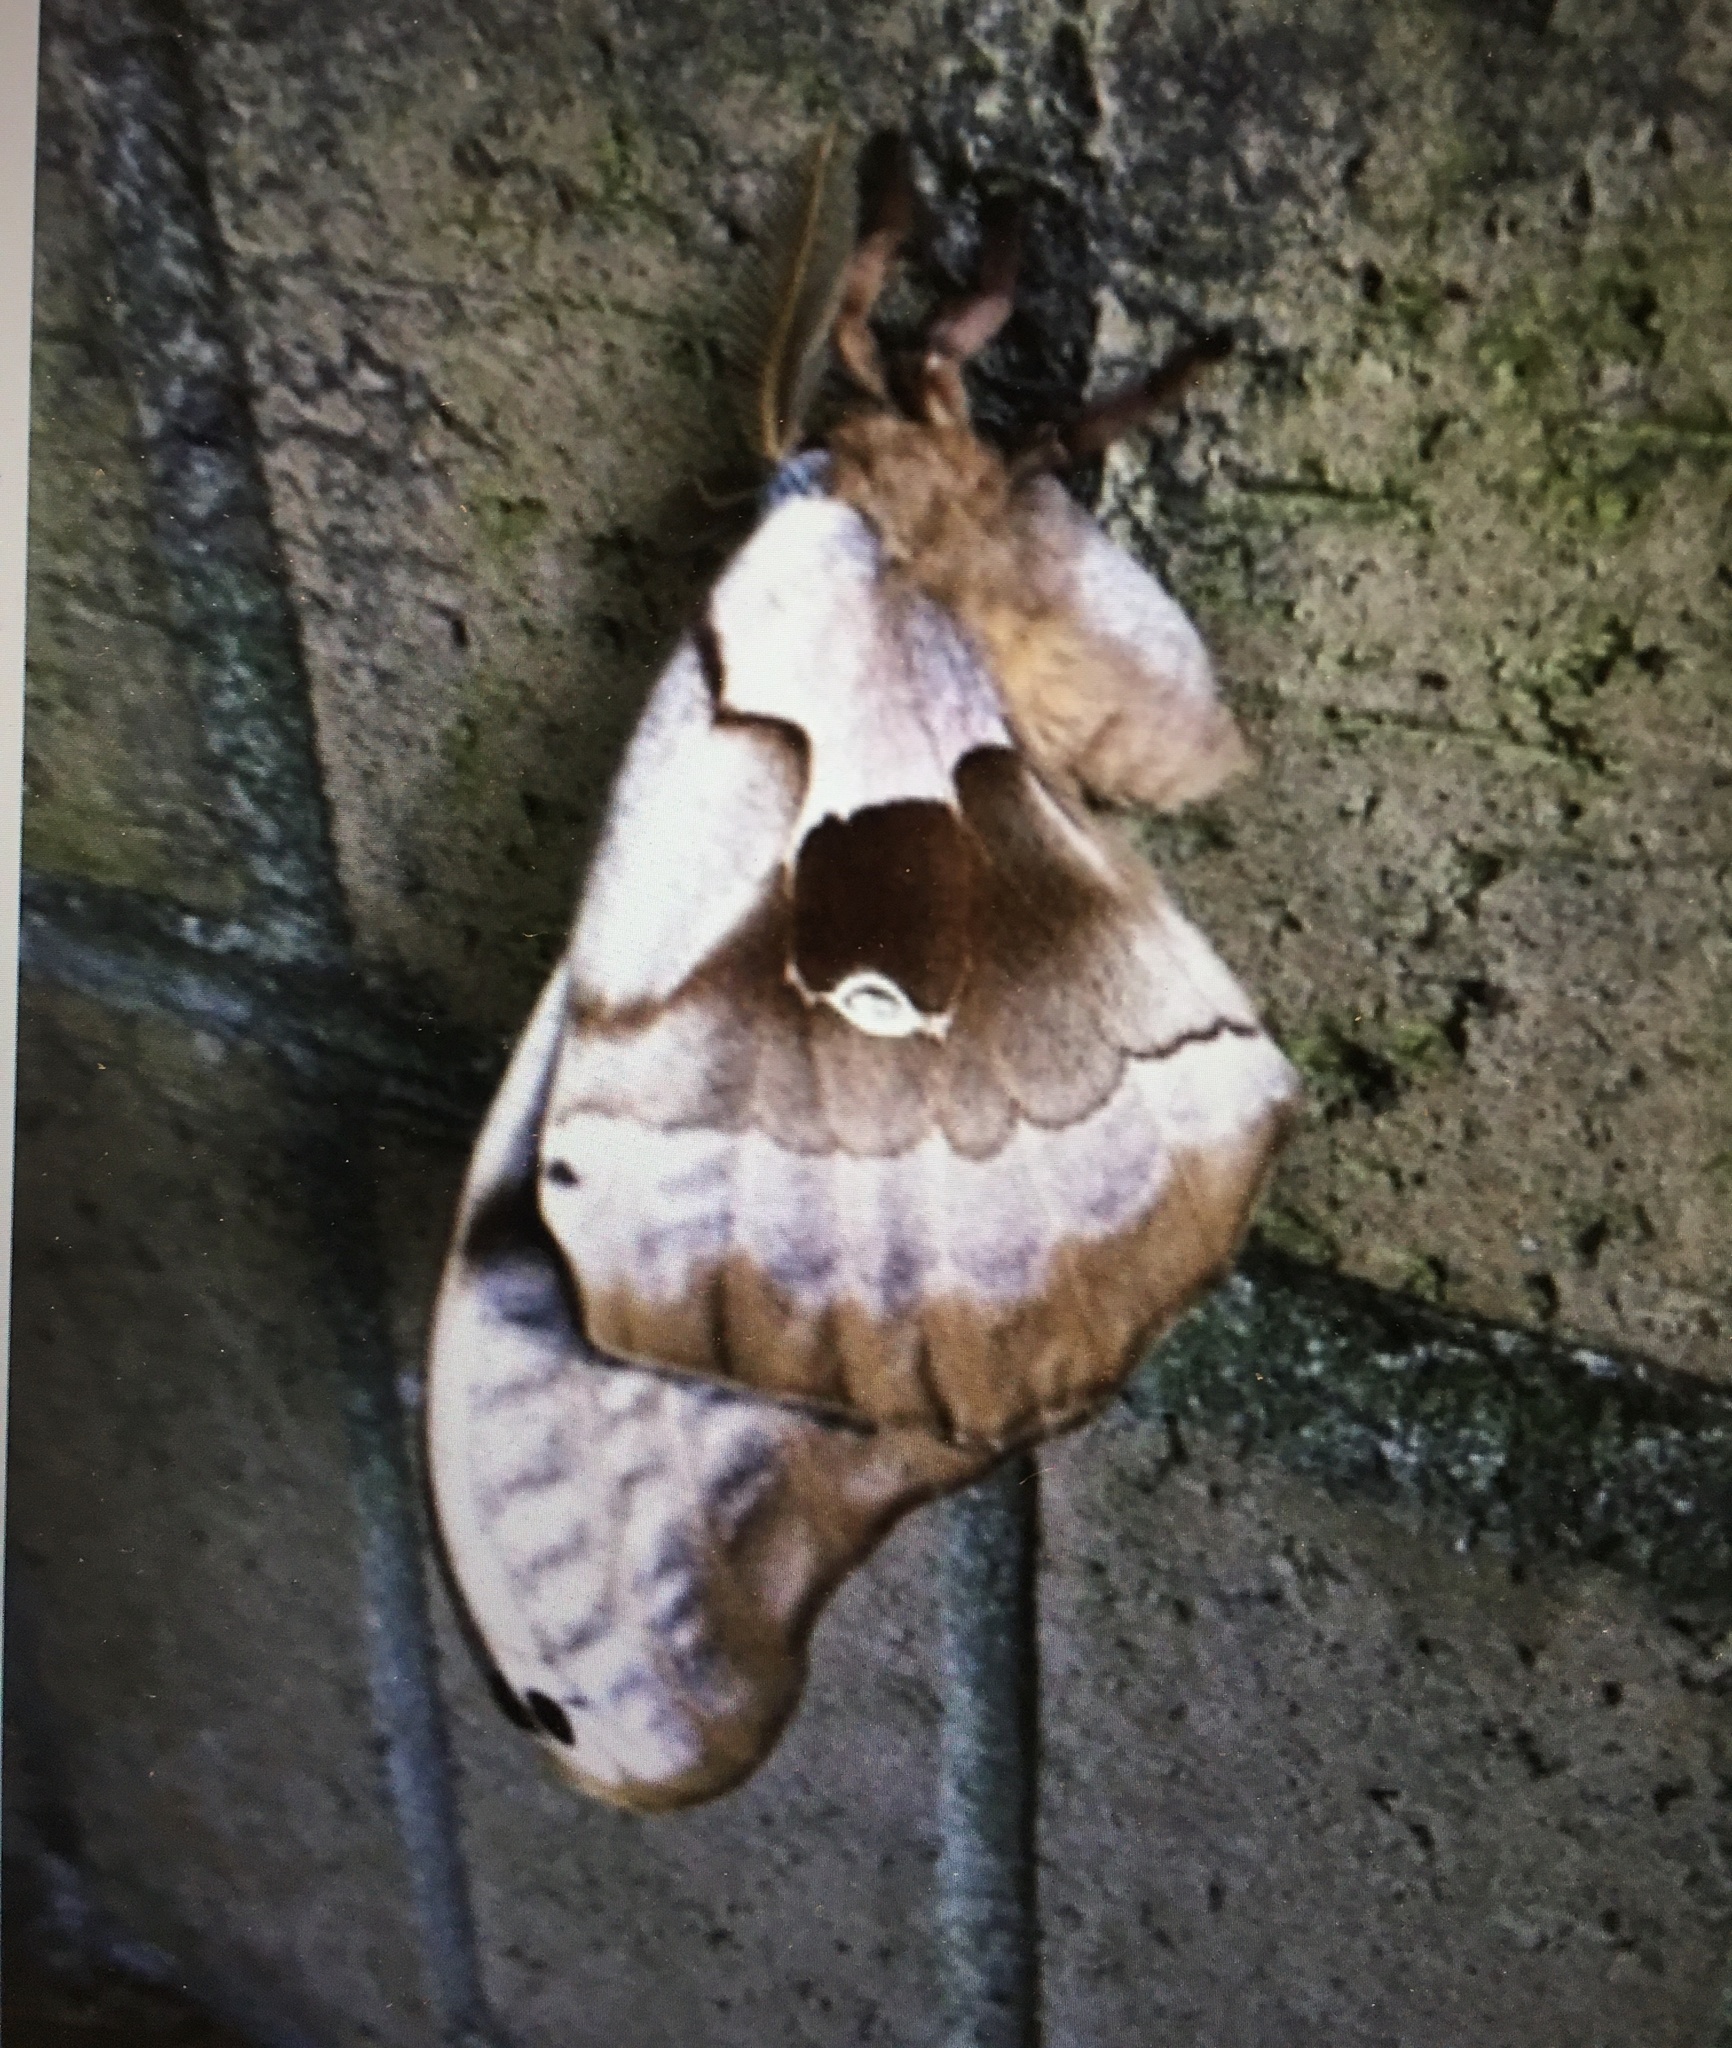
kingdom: Animalia
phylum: Arthropoda
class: Insecta
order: Lepidoptera
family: Saturniidae
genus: Antheraea
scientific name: Antheraea polyphemus
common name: Polyphemus moth
